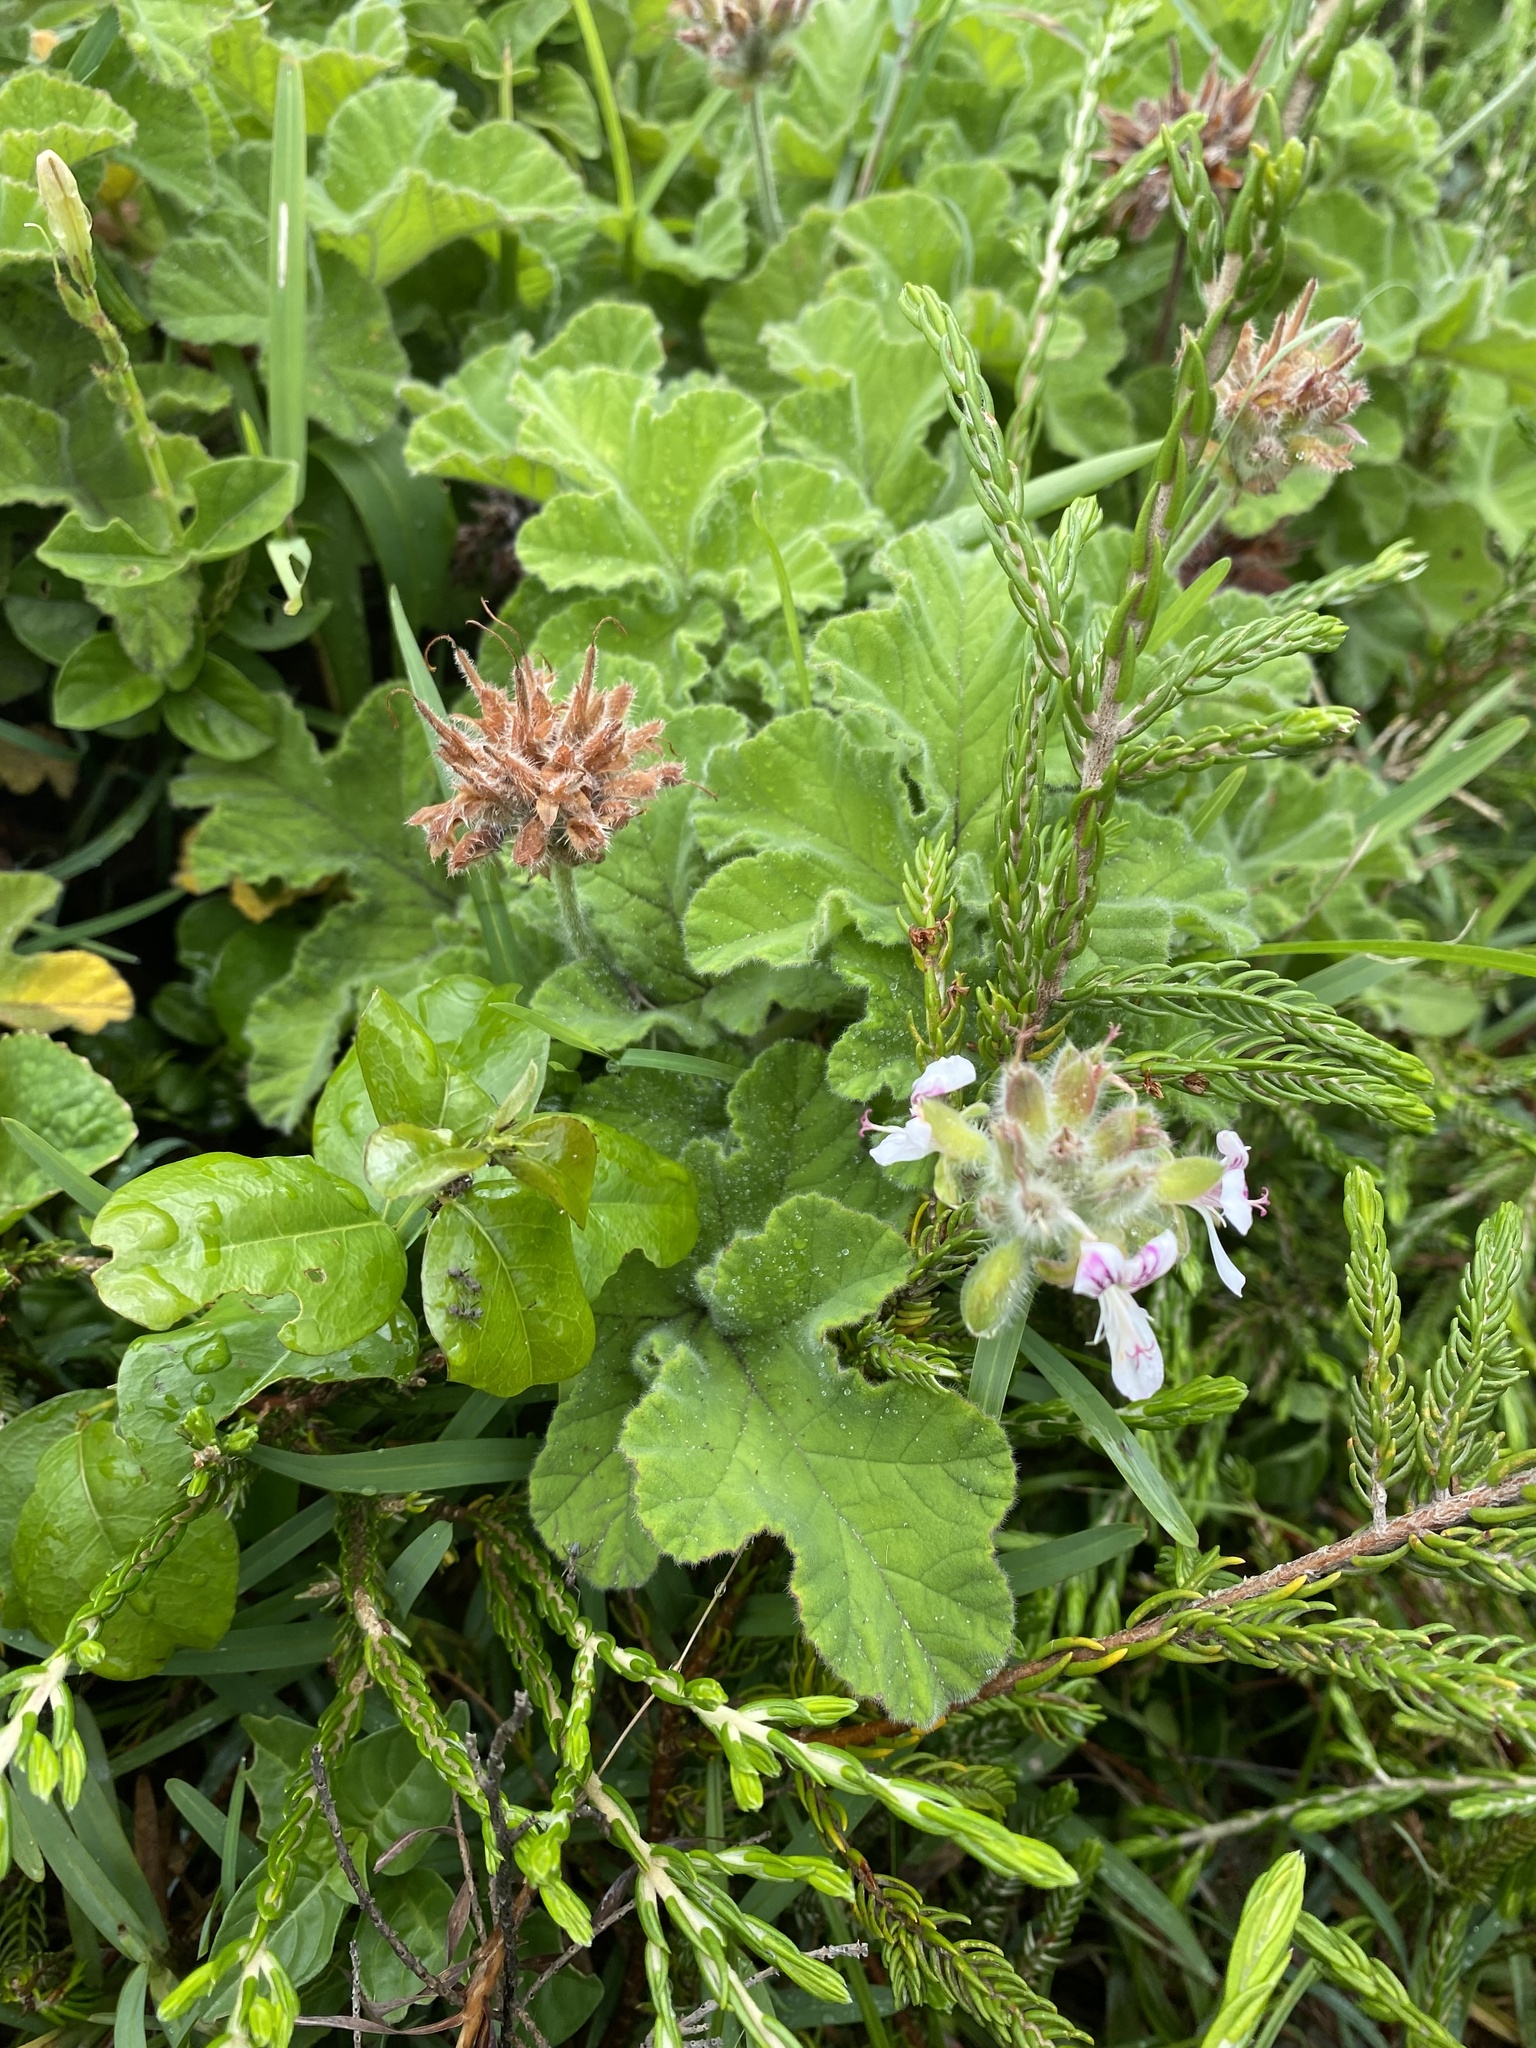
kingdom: Plantae
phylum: Tracheophyta
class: Magnoliopsida
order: Geraniales
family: Geraniaceae
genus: Pelargonium
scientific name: Pelargonium capitatum
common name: Rose scented geranium
